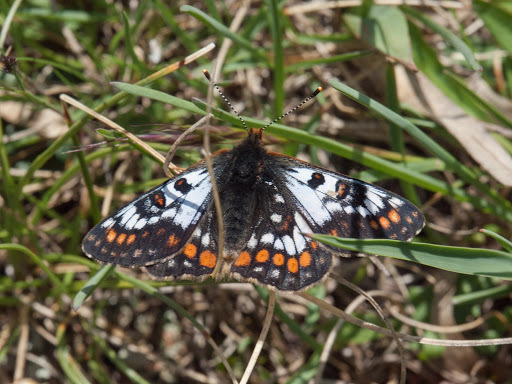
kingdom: Animalia
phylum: Arthropoda
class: Insecta
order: Lepidoptera
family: Nymphalidae
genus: Hypodryas
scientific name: Hypodryas cynthia
